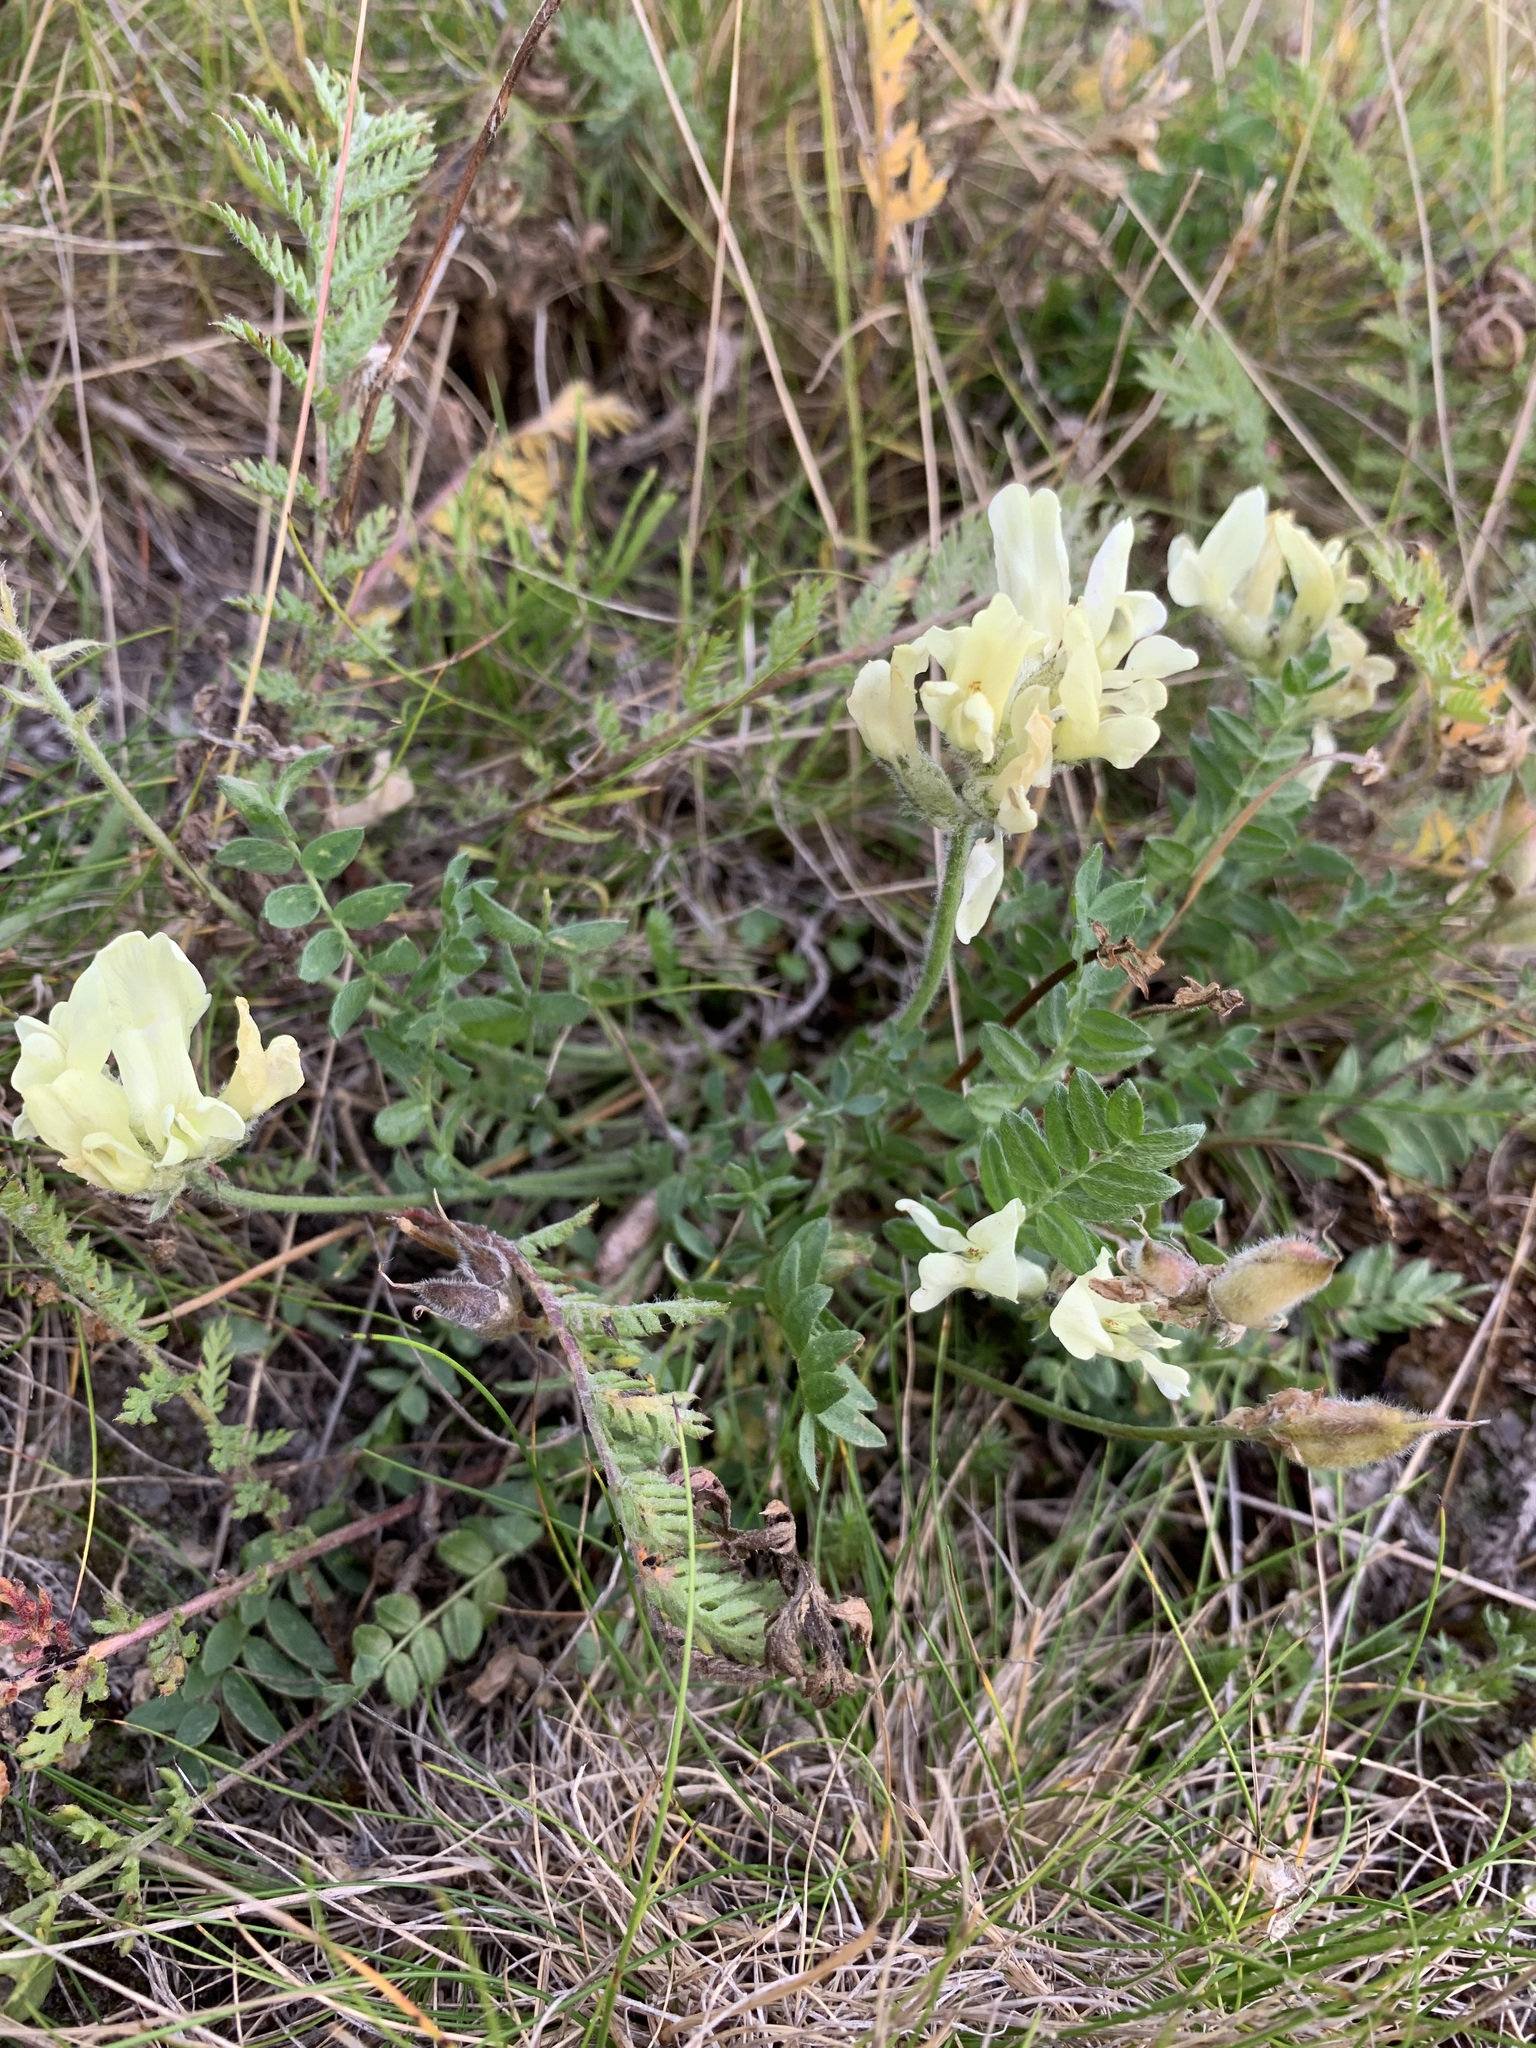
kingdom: Plantae
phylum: Tracheophyta
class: Magnoliopsida
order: Fabales
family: Fabaceae
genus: Oxytropis
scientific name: Oxytropis sordida
